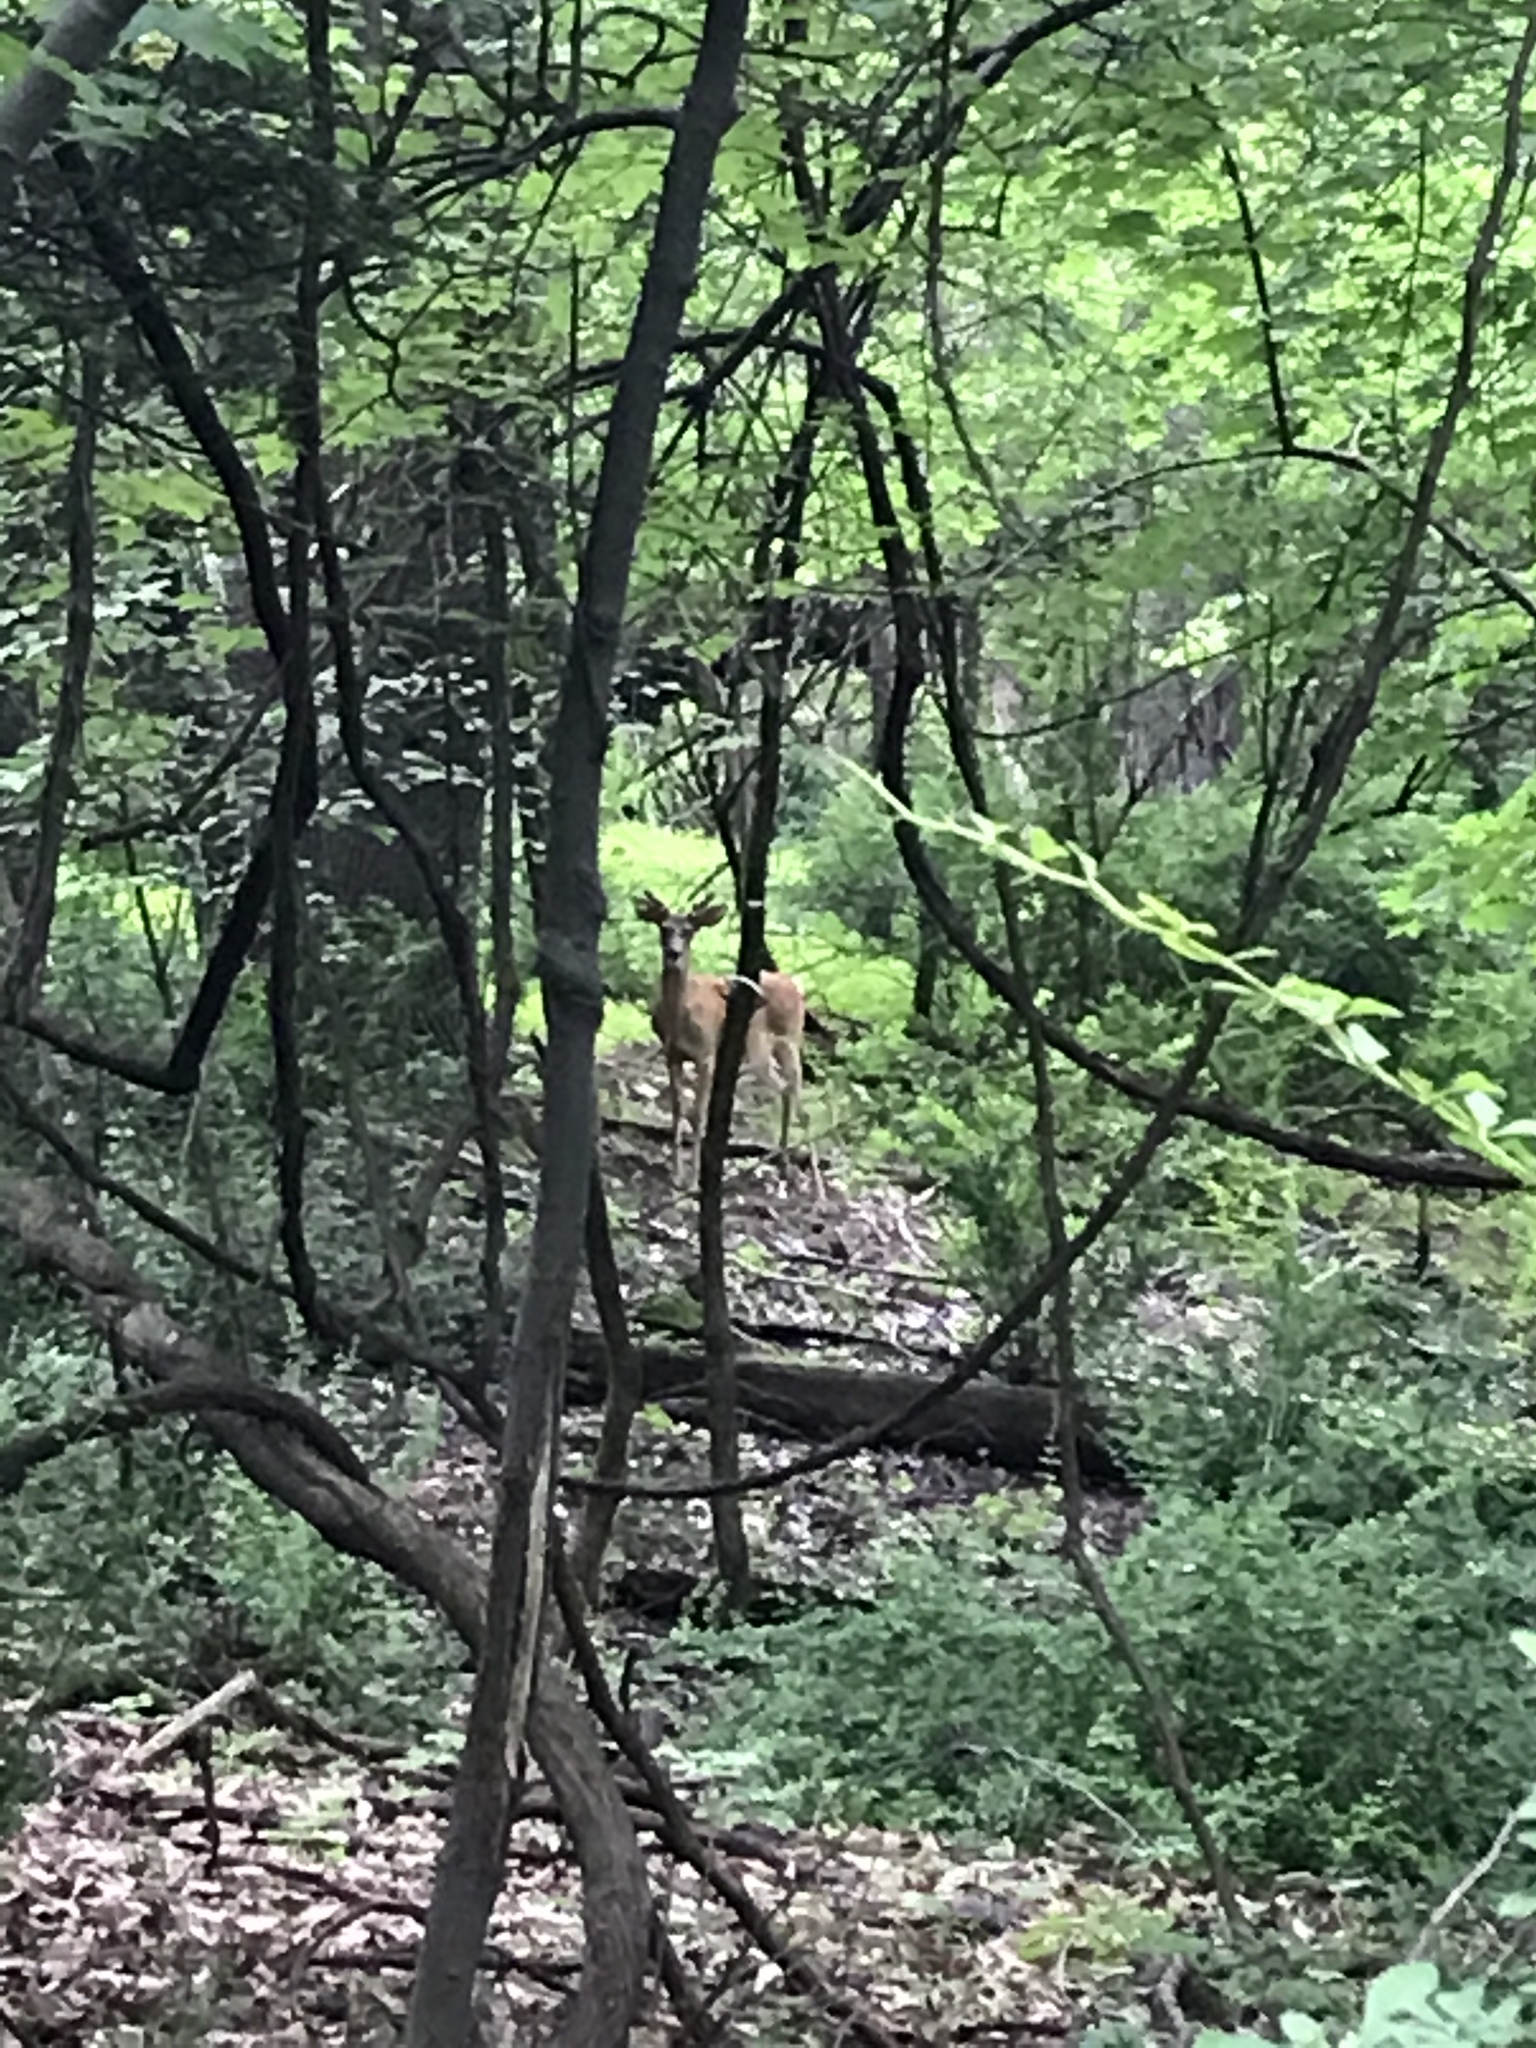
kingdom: Animalia
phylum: Chordata
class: Mammalia
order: Artiodactyla
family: Cervidae
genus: Odocoileus
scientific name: Odocoileus virginianus
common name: White-tailed deer
